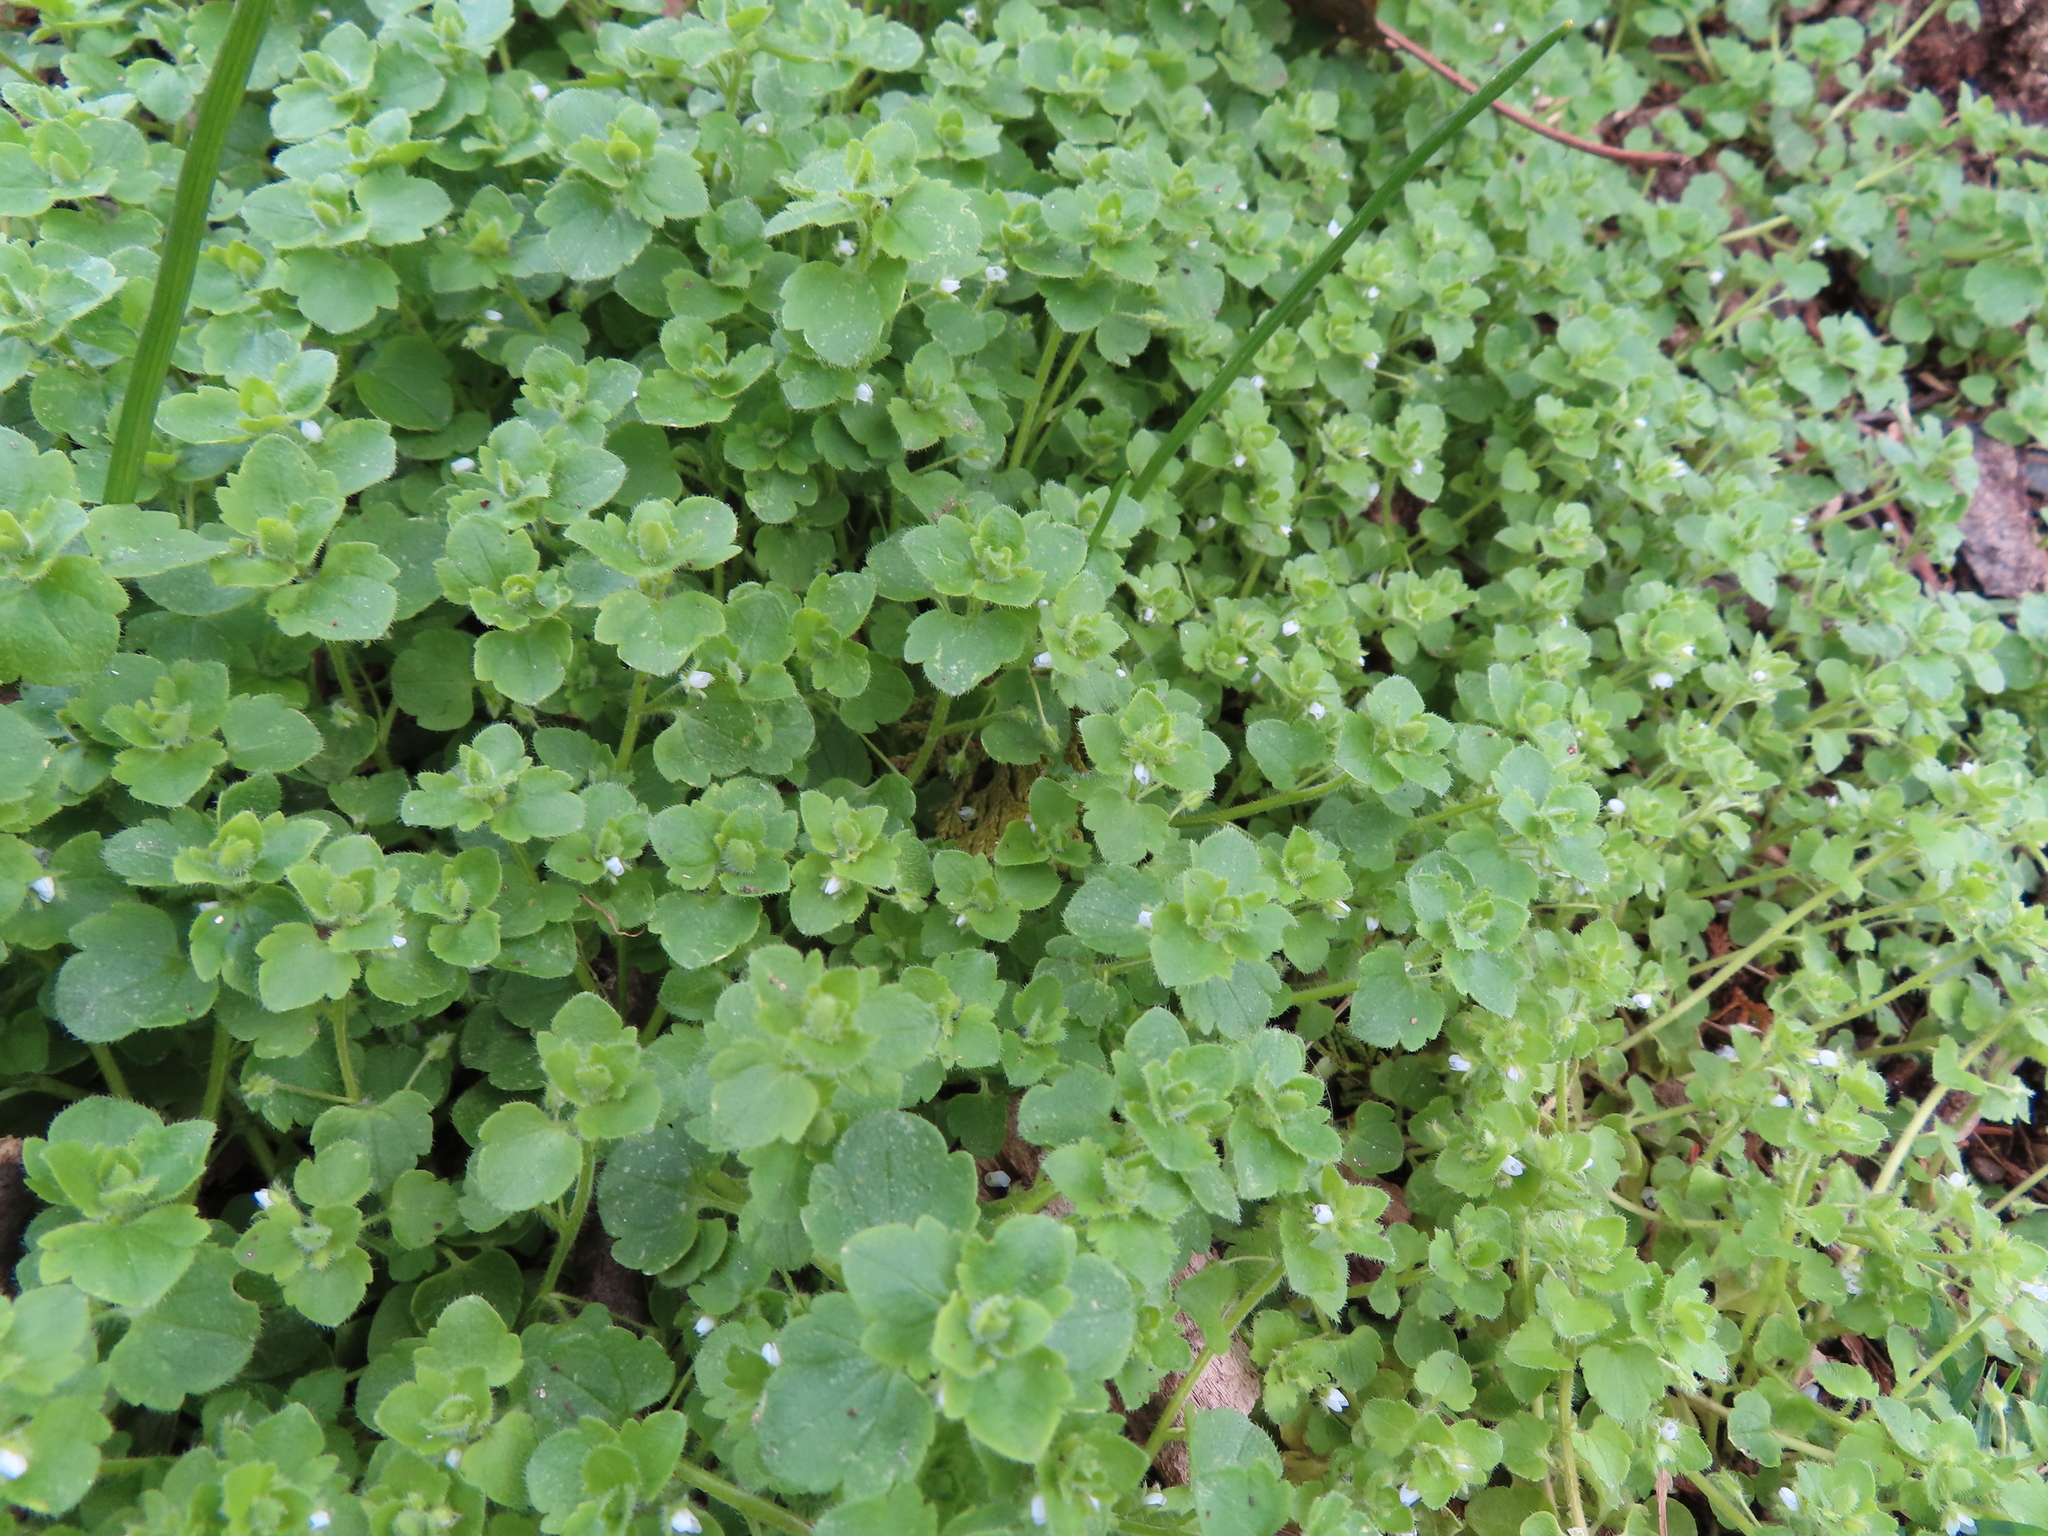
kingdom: Plantae
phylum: Tracheophyta
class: Magnoliopsida
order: Lamiales
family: Plantaginaceae
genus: Veronica
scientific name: Veronica sublobata
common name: False ivy-leaved speedwell
